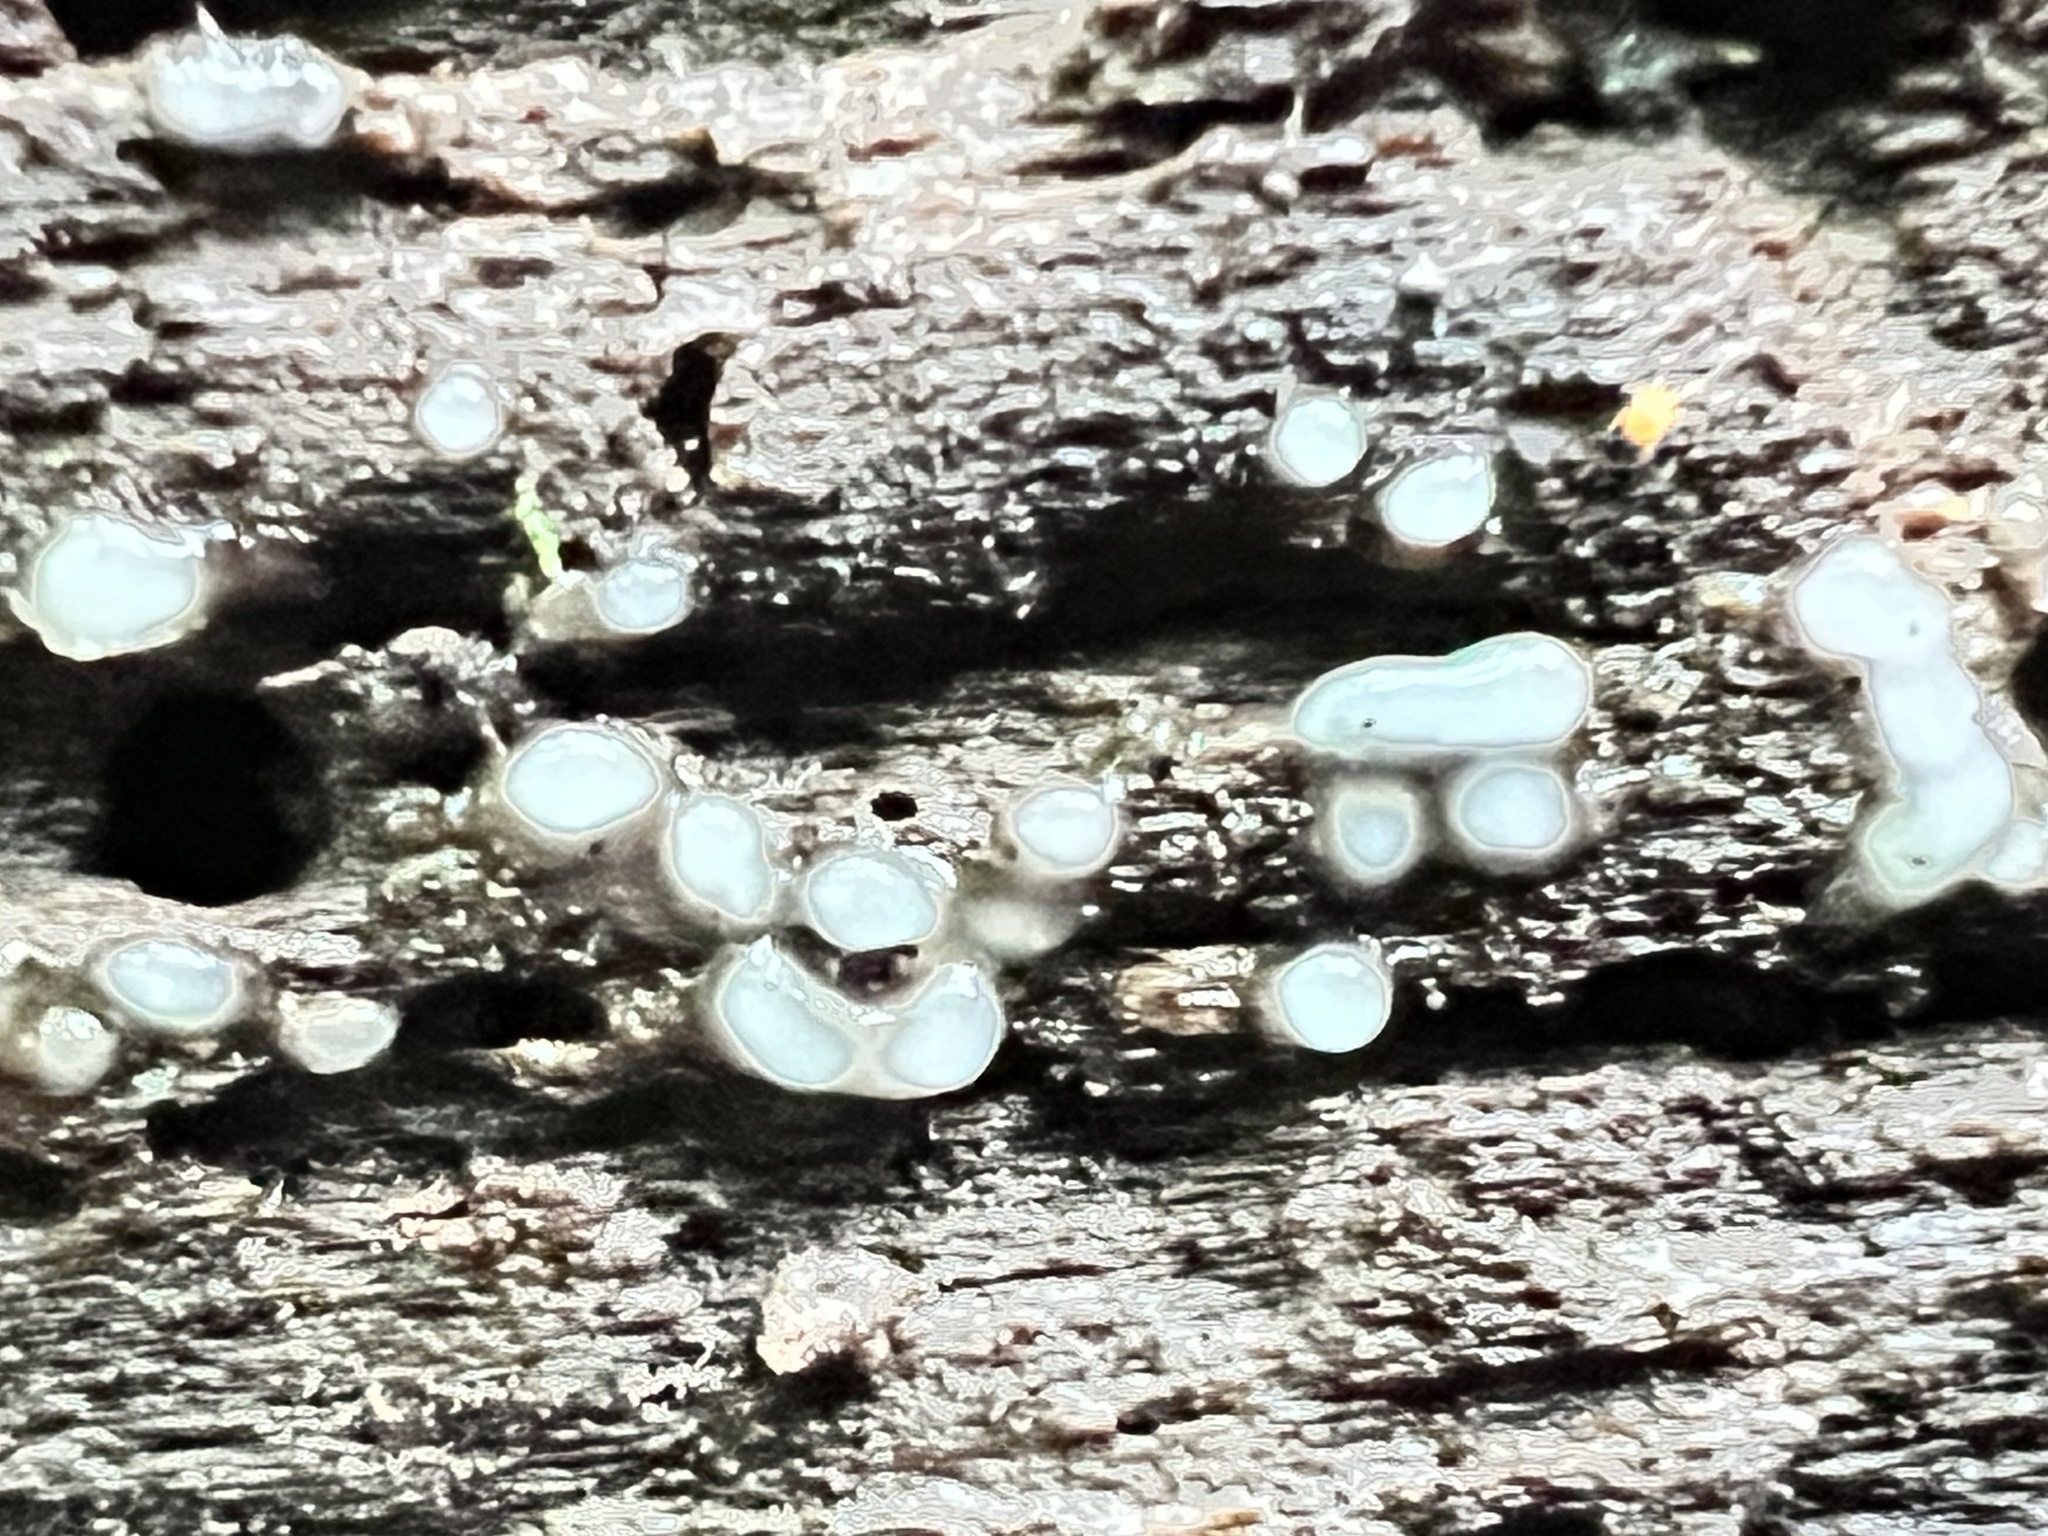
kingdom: Fungi
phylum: Basidiomycota
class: Atractiellomycetes
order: Atractiellales
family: Phleogenaceae
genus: Helicogloea
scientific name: Helicogloea compressa
